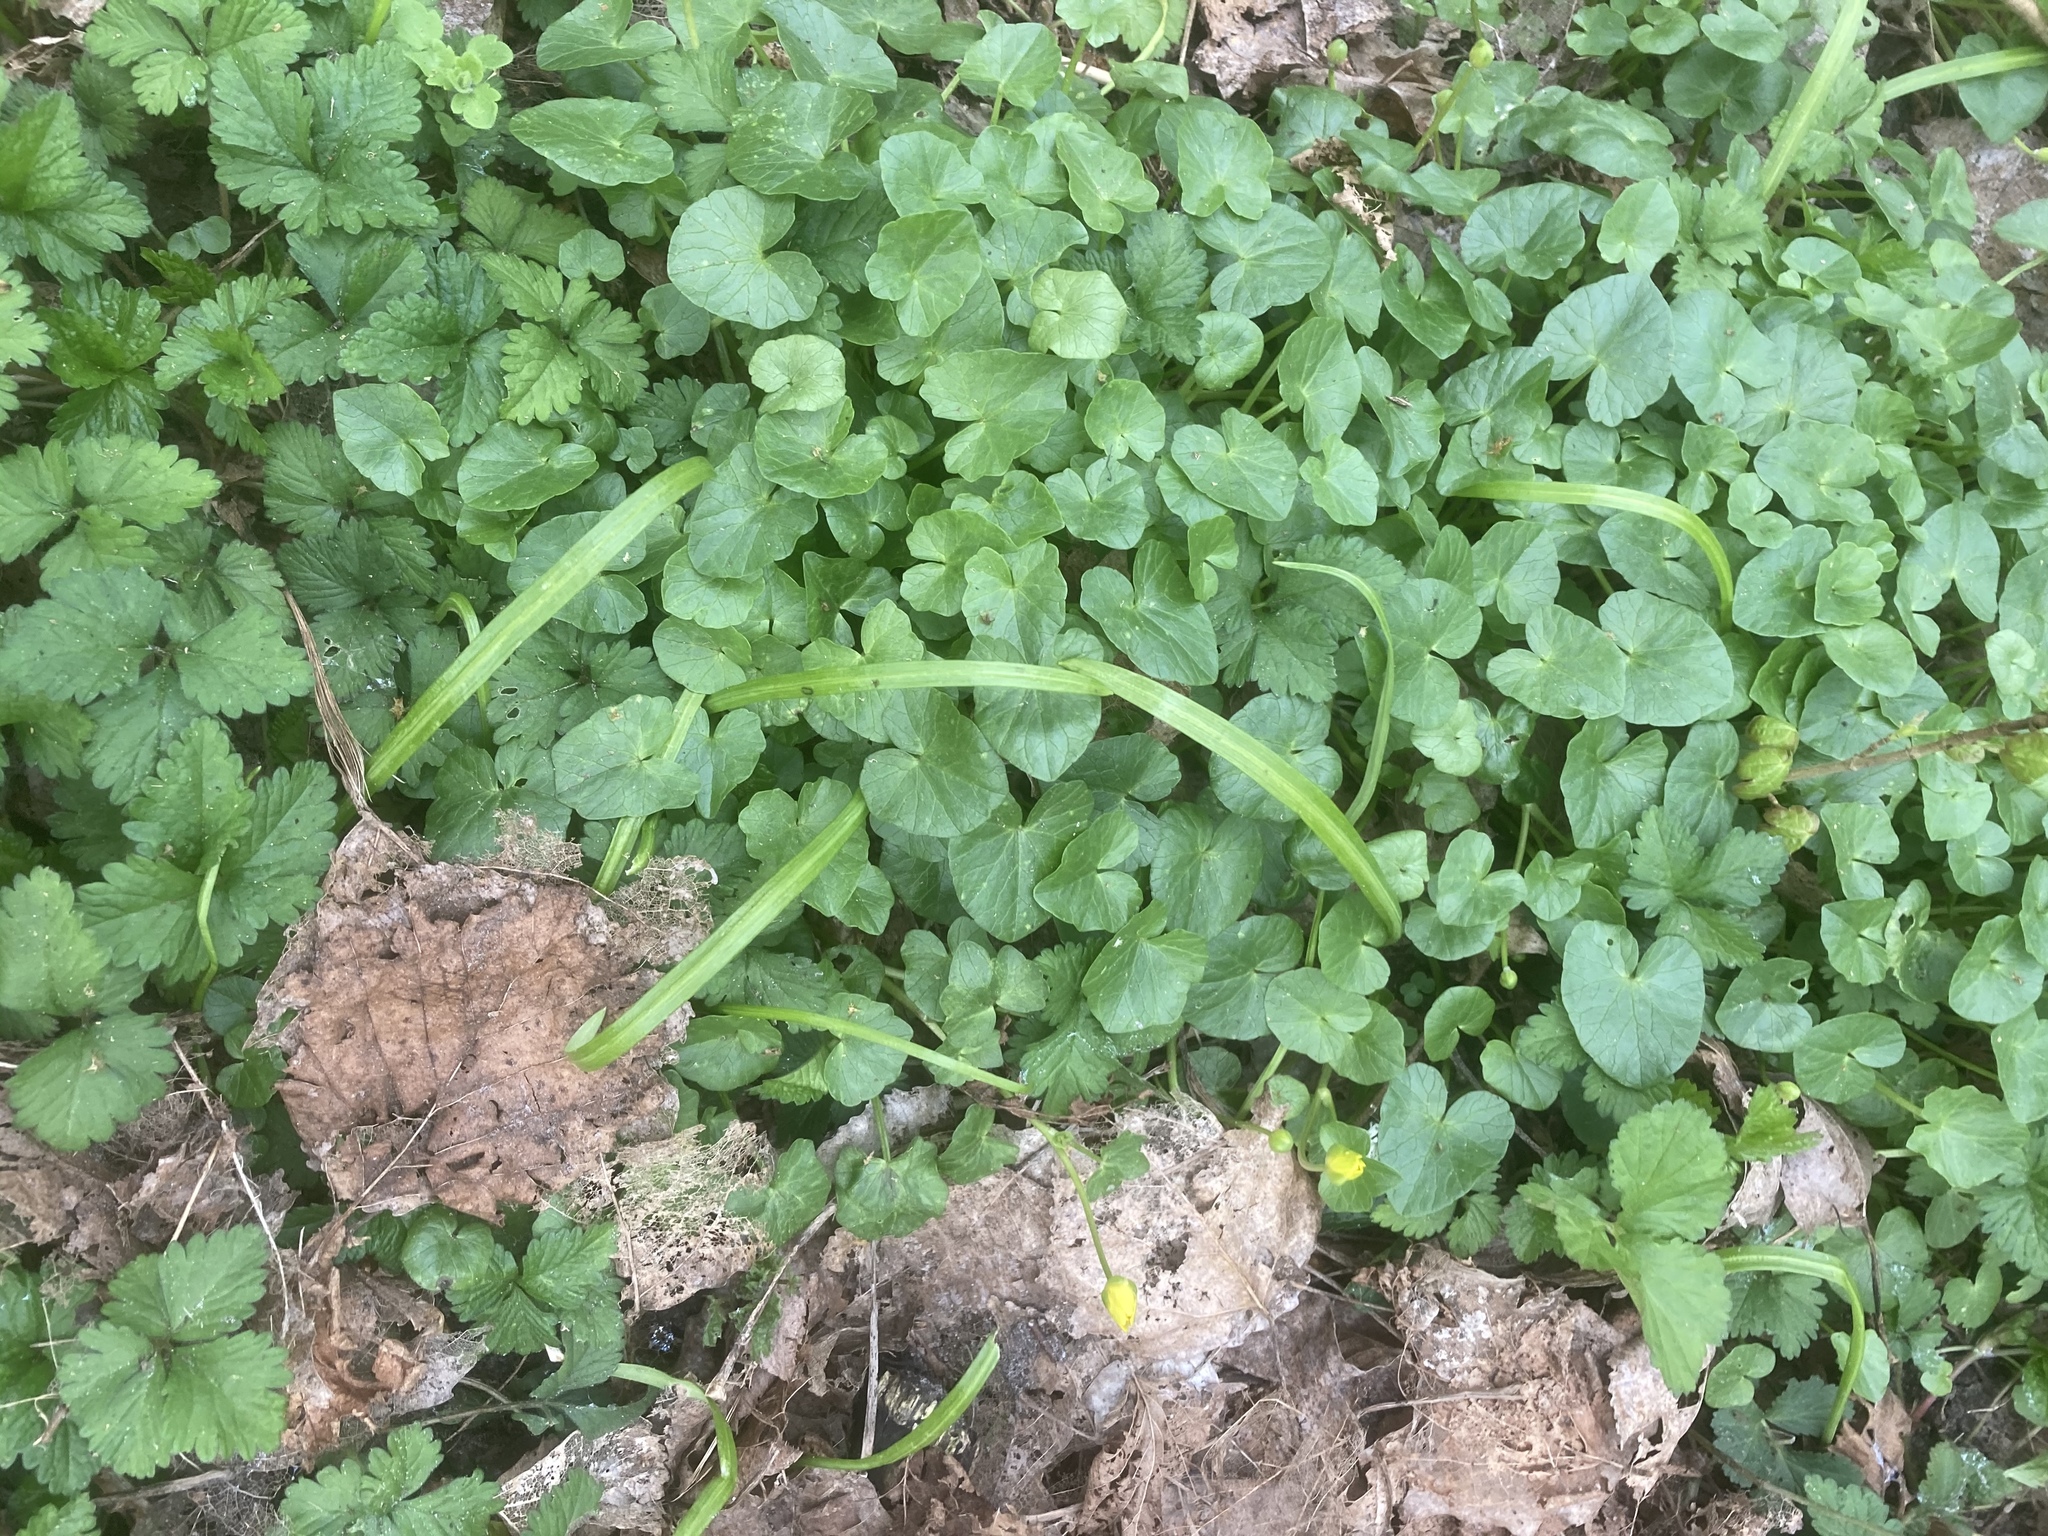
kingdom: Plantae
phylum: Tracheophyta
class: Magnoliopsida
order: Ranunculales
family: Ranunculaceae
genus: Ficaria
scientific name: Ficaria verna
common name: Lesser celandine
